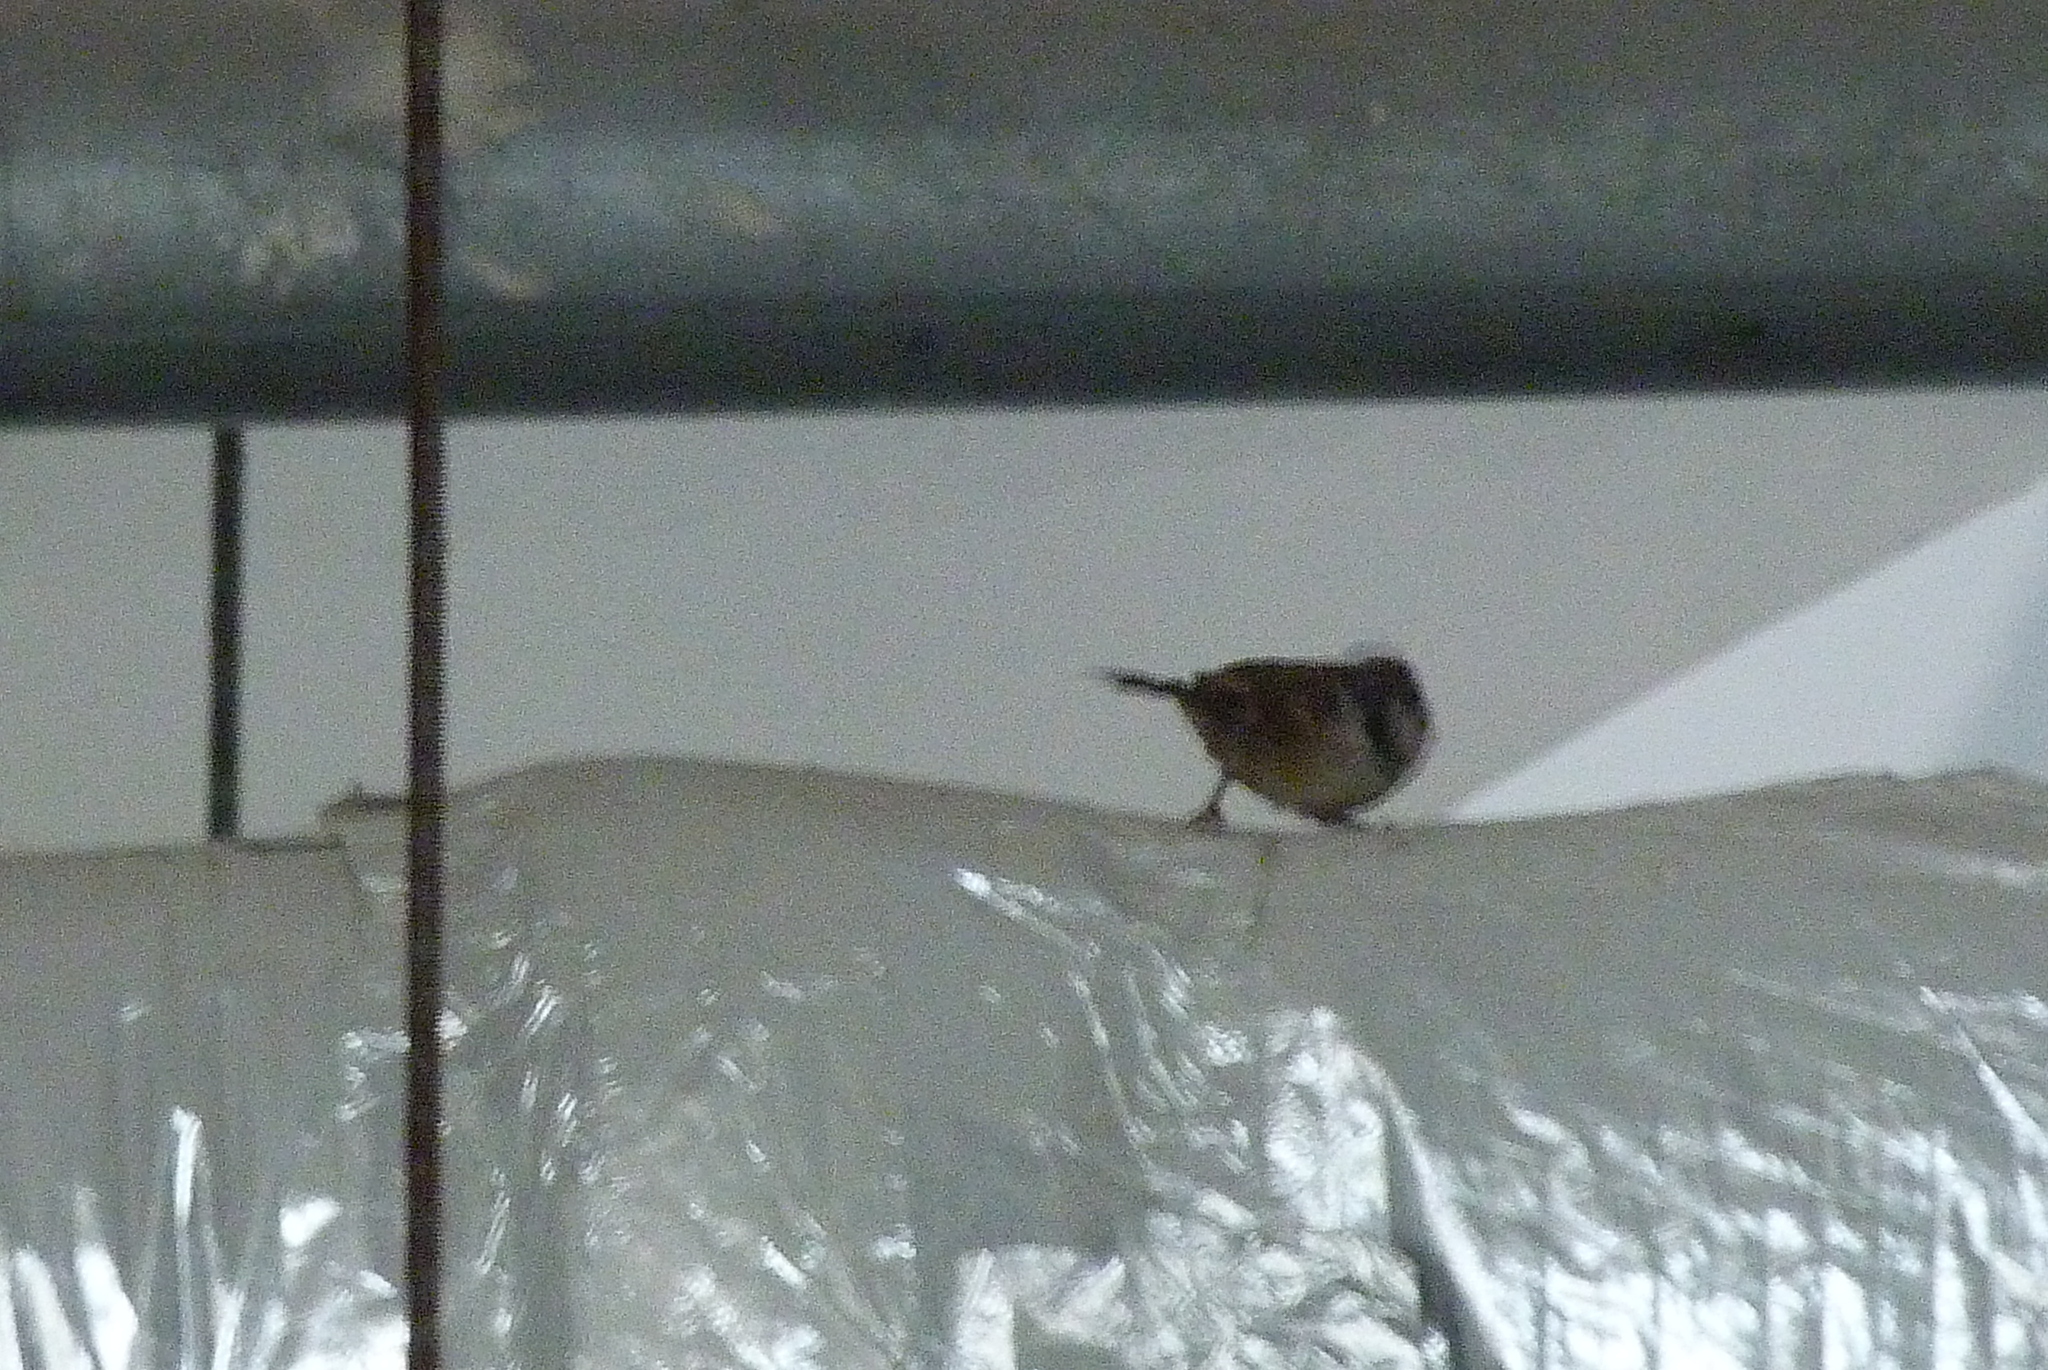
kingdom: Animalia
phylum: Chordata
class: Aves
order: Passeriformes
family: Passeridae
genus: Passer
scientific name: Passer montanus
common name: Eurasian tree sparrow
